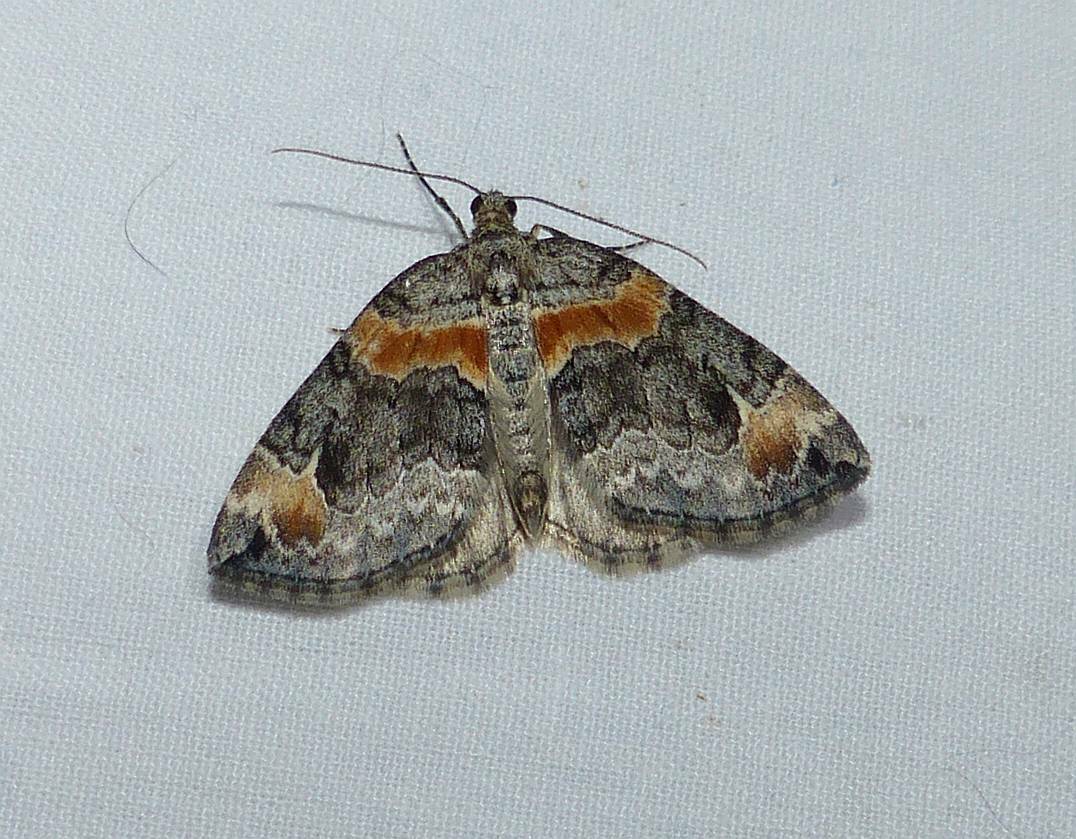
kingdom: Animalia
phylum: Arthropoda
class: Insecta
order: Lepidoptera
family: Geometridae
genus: Dysstroma
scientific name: Dysstroma hersiliata
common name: Orange-barred carpet
